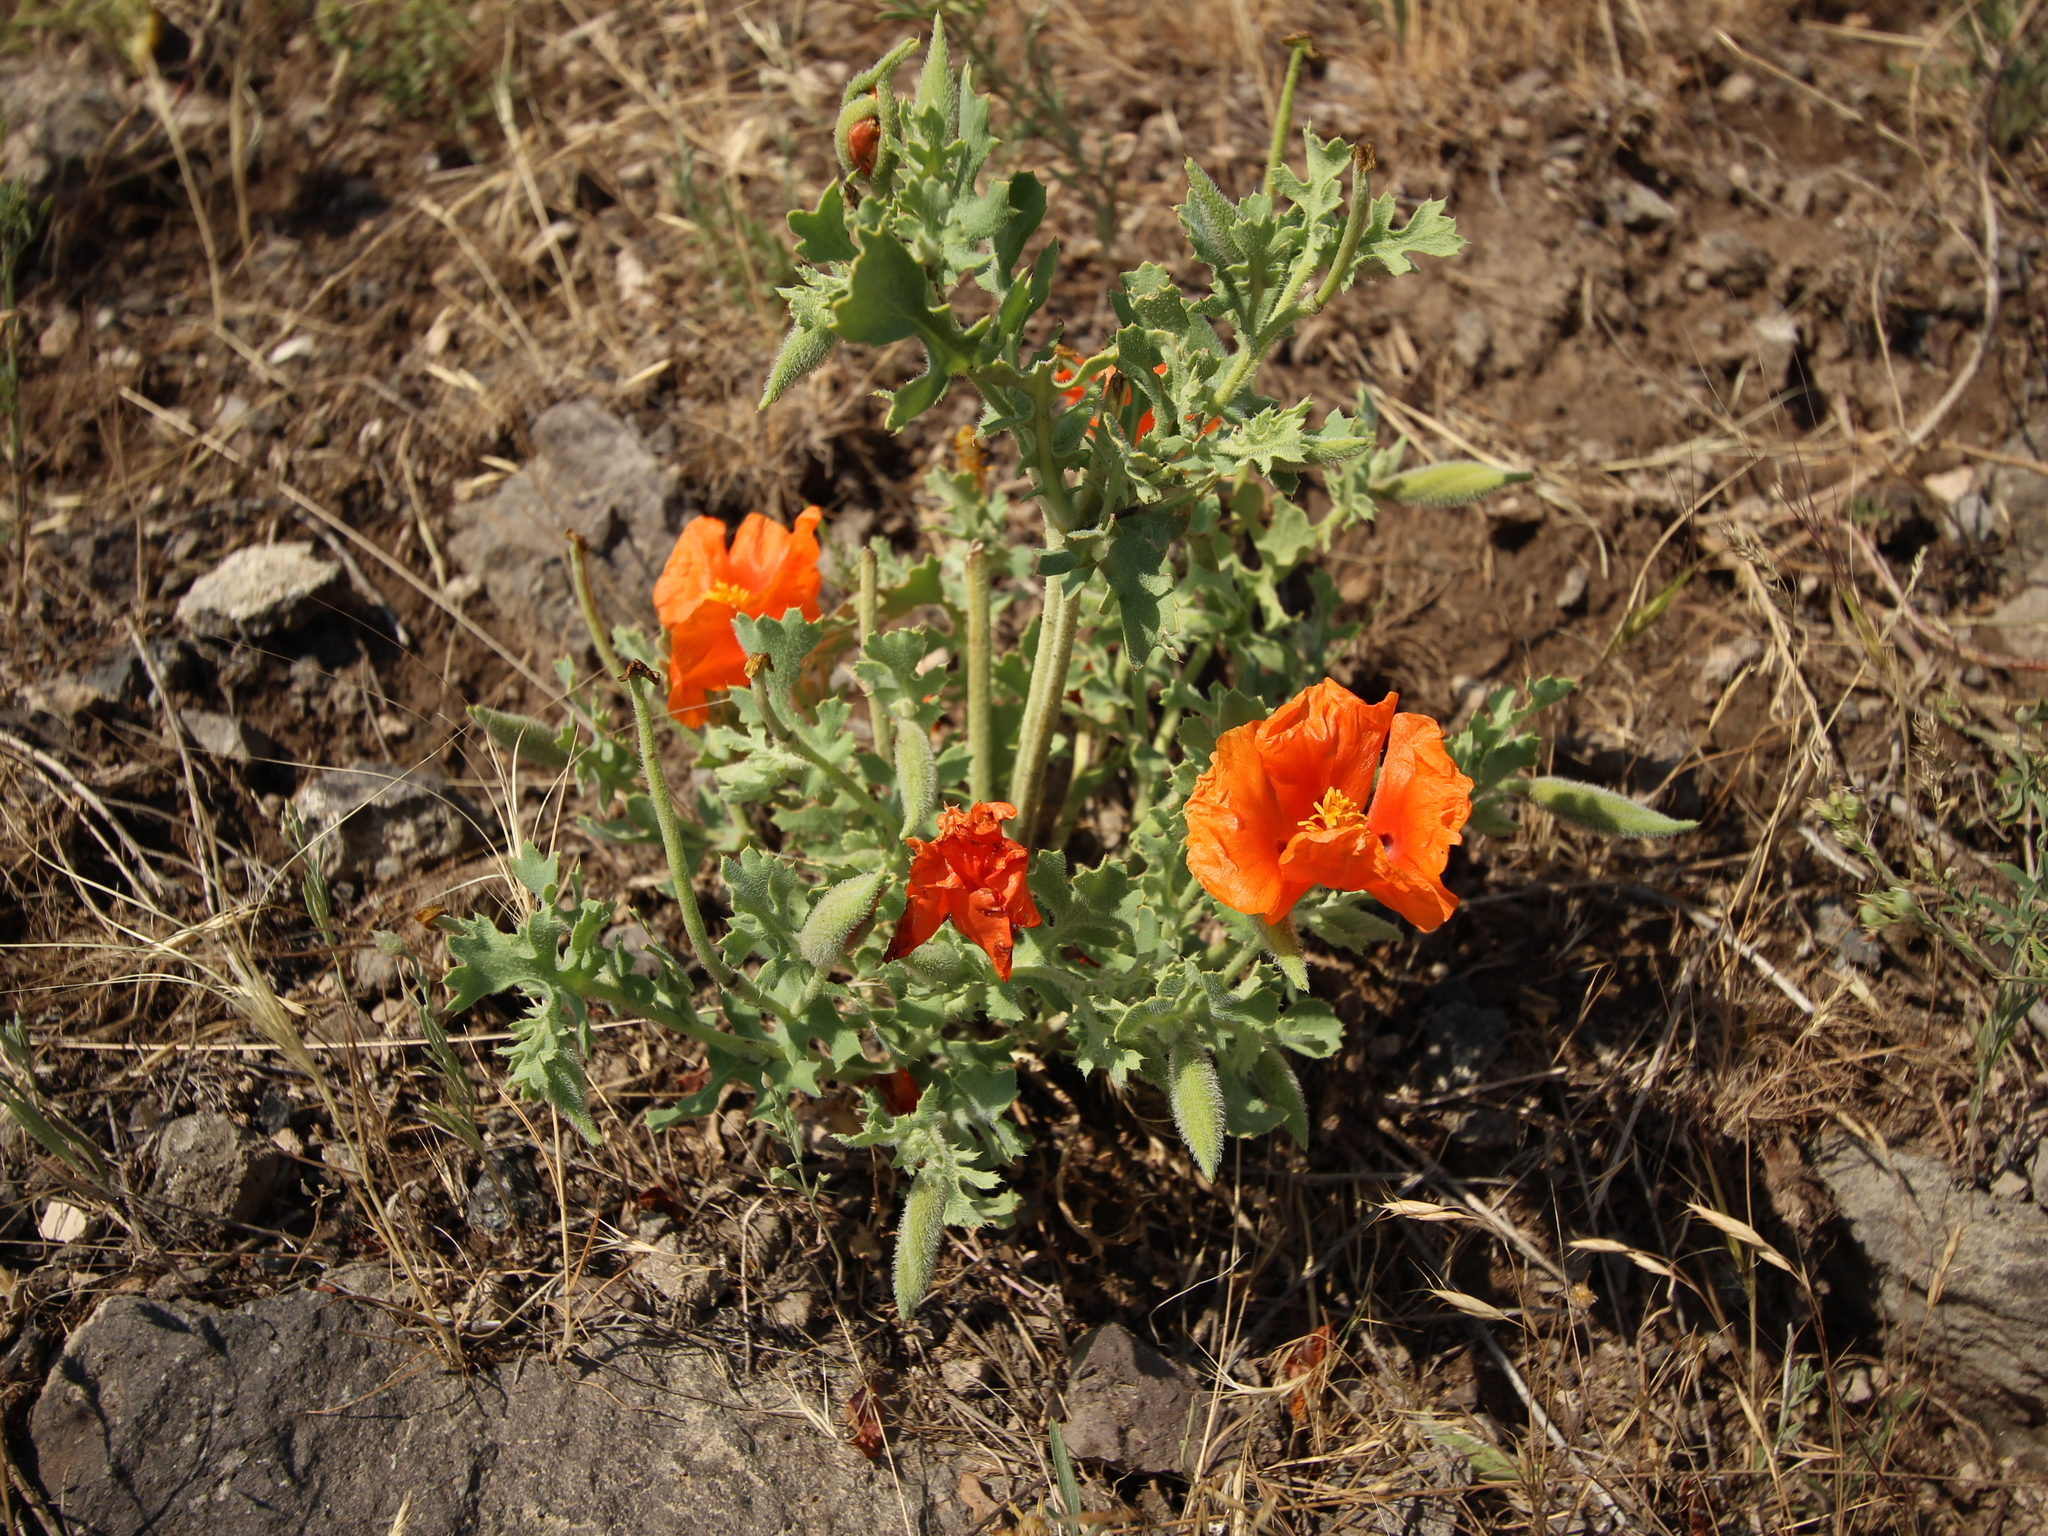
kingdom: Plantae
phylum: Tracheophyta
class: Magnoliopsida
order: Ranunculales
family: Papaveraceae
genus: Glaucium
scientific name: Glaucium corniculatum
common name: Red horned-poppy
